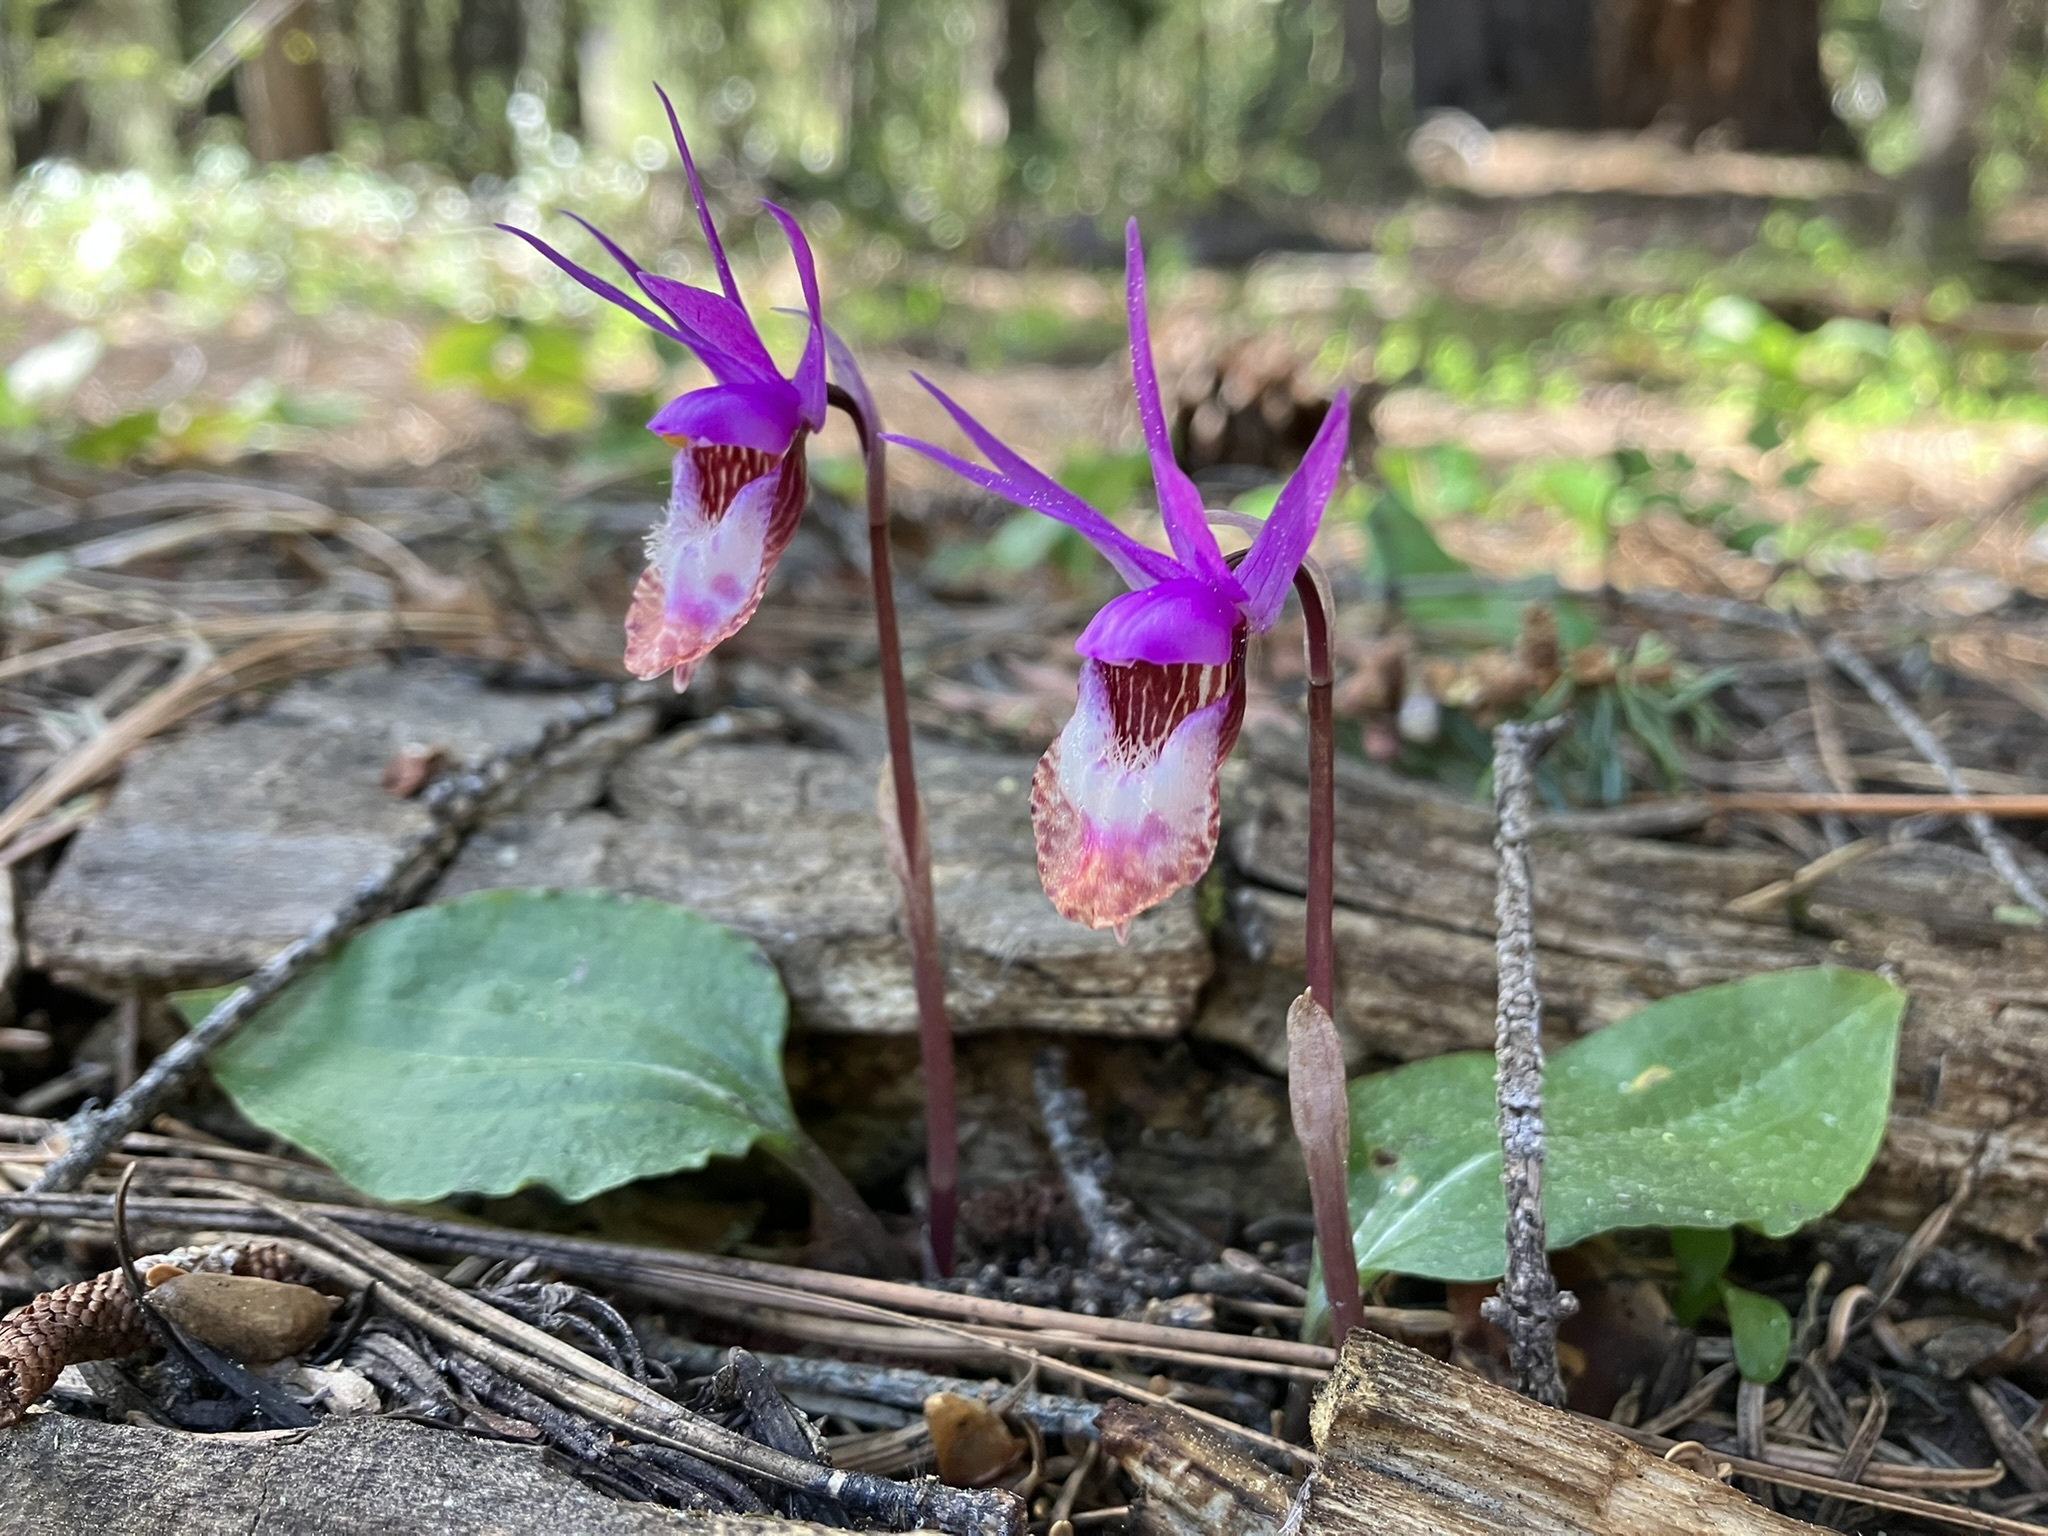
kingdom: Plantae
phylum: Tracheophyta
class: Liliopsida
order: Asparagales
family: Orchidaceae
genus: Calypso
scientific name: Calypso bulbosa
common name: Calypso
